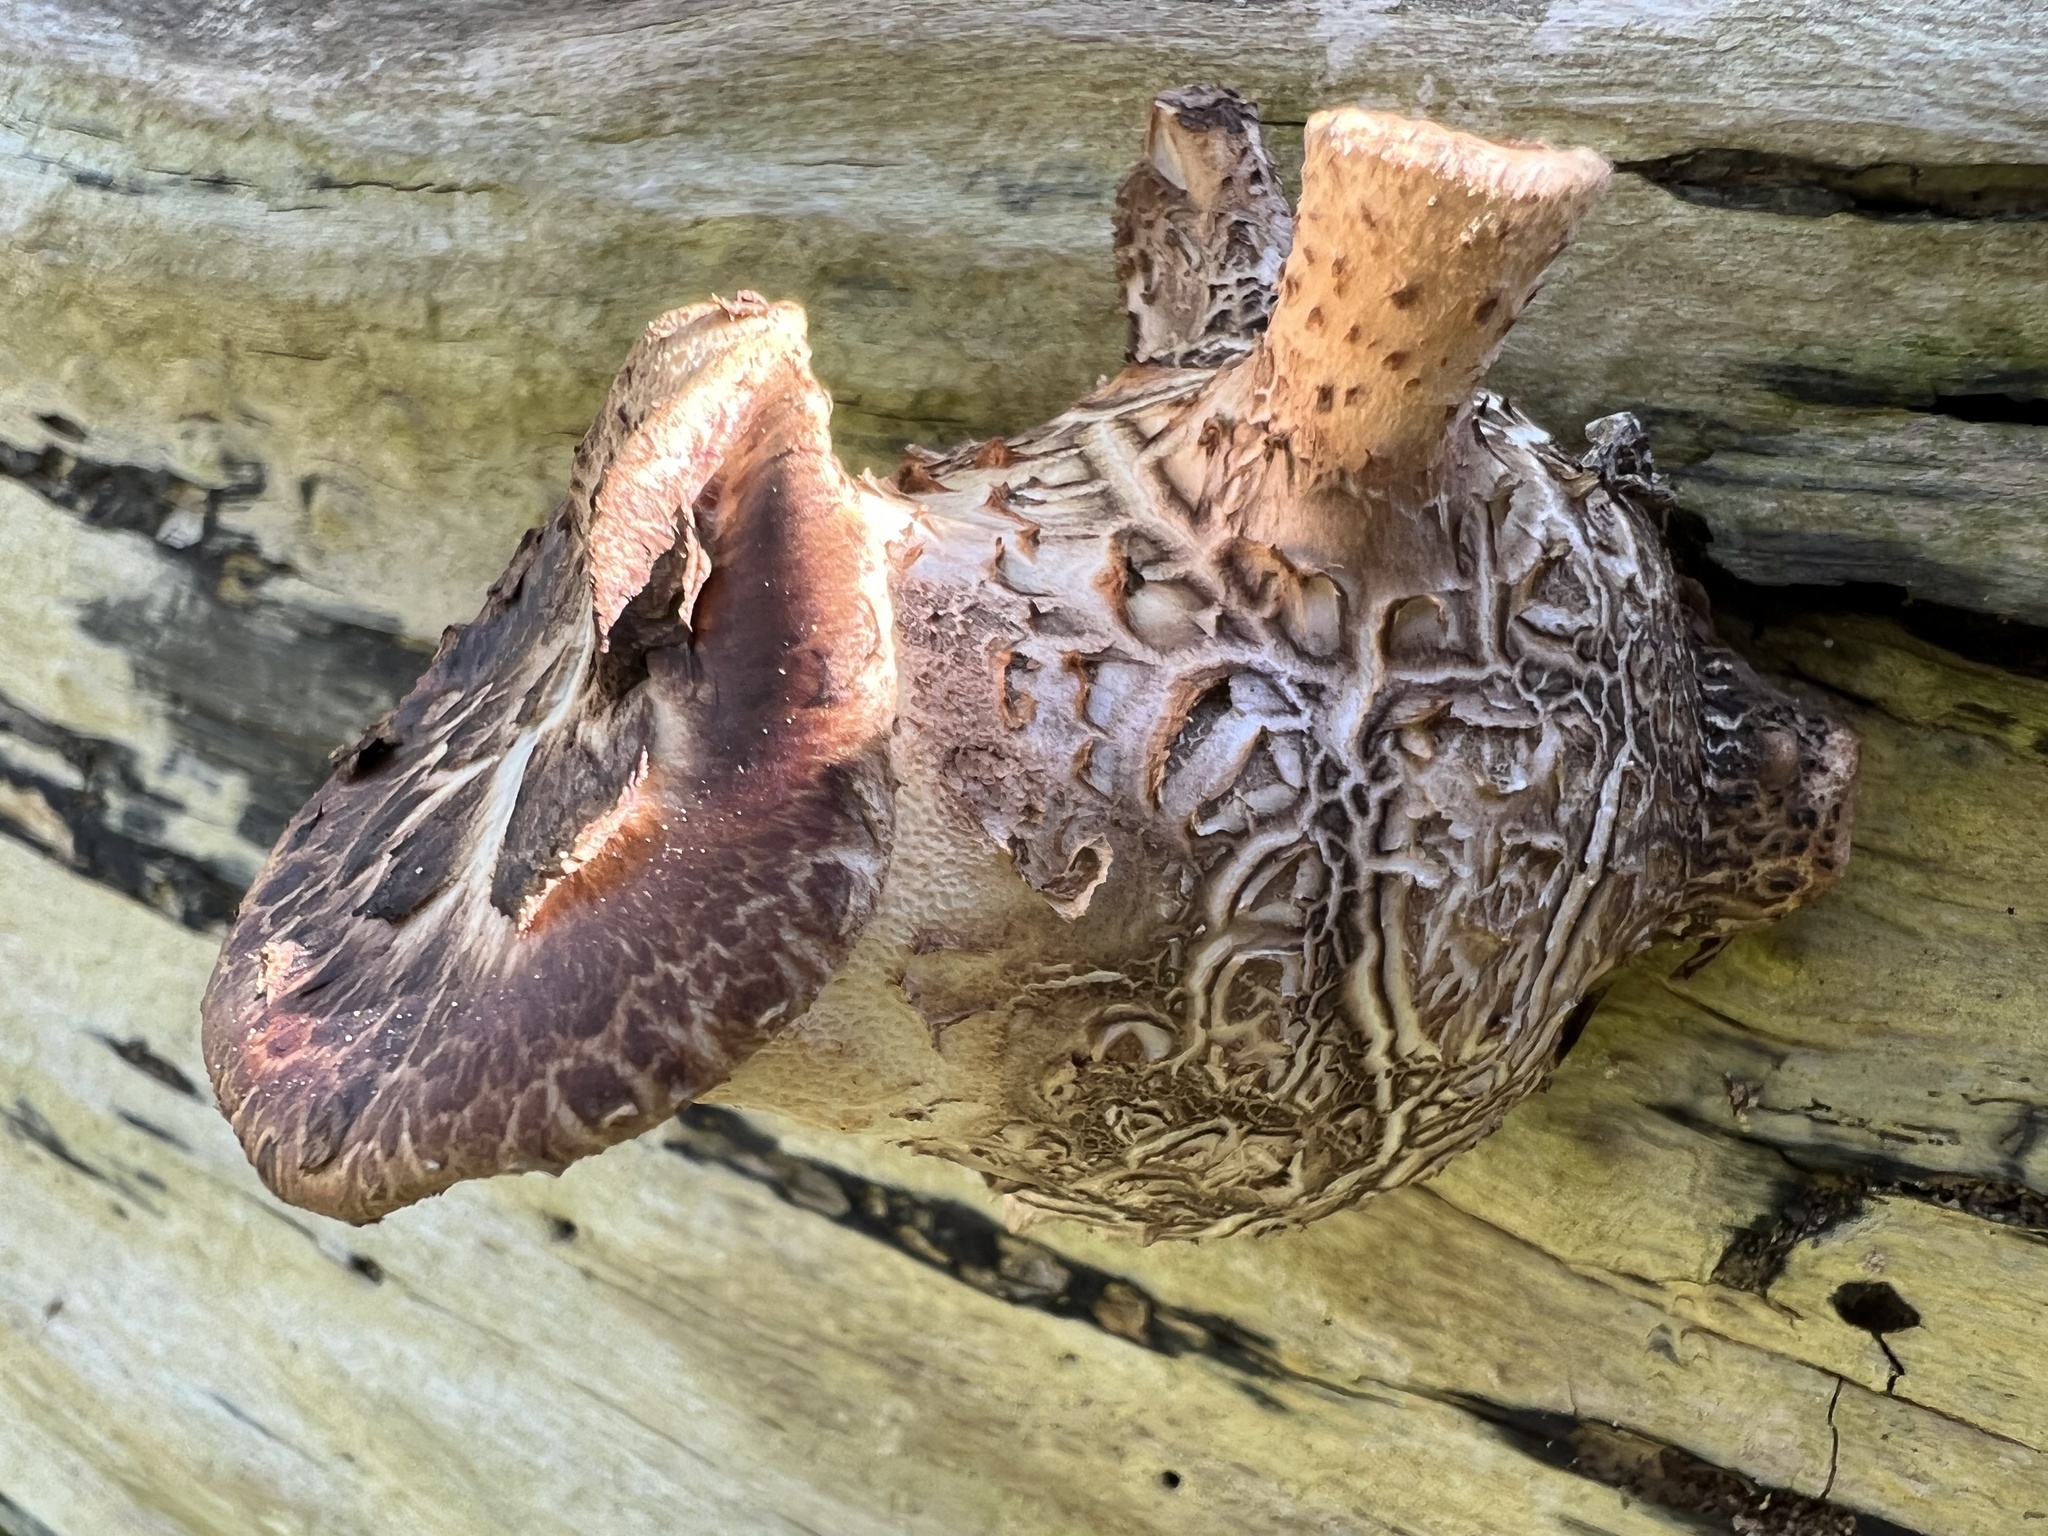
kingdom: Fungi
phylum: Basidiomycota
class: Agaricomycetes
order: Polyporales
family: Polyporaceae
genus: Cerioporus
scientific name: Cerioporus squamosus
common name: Dryad's saddle
